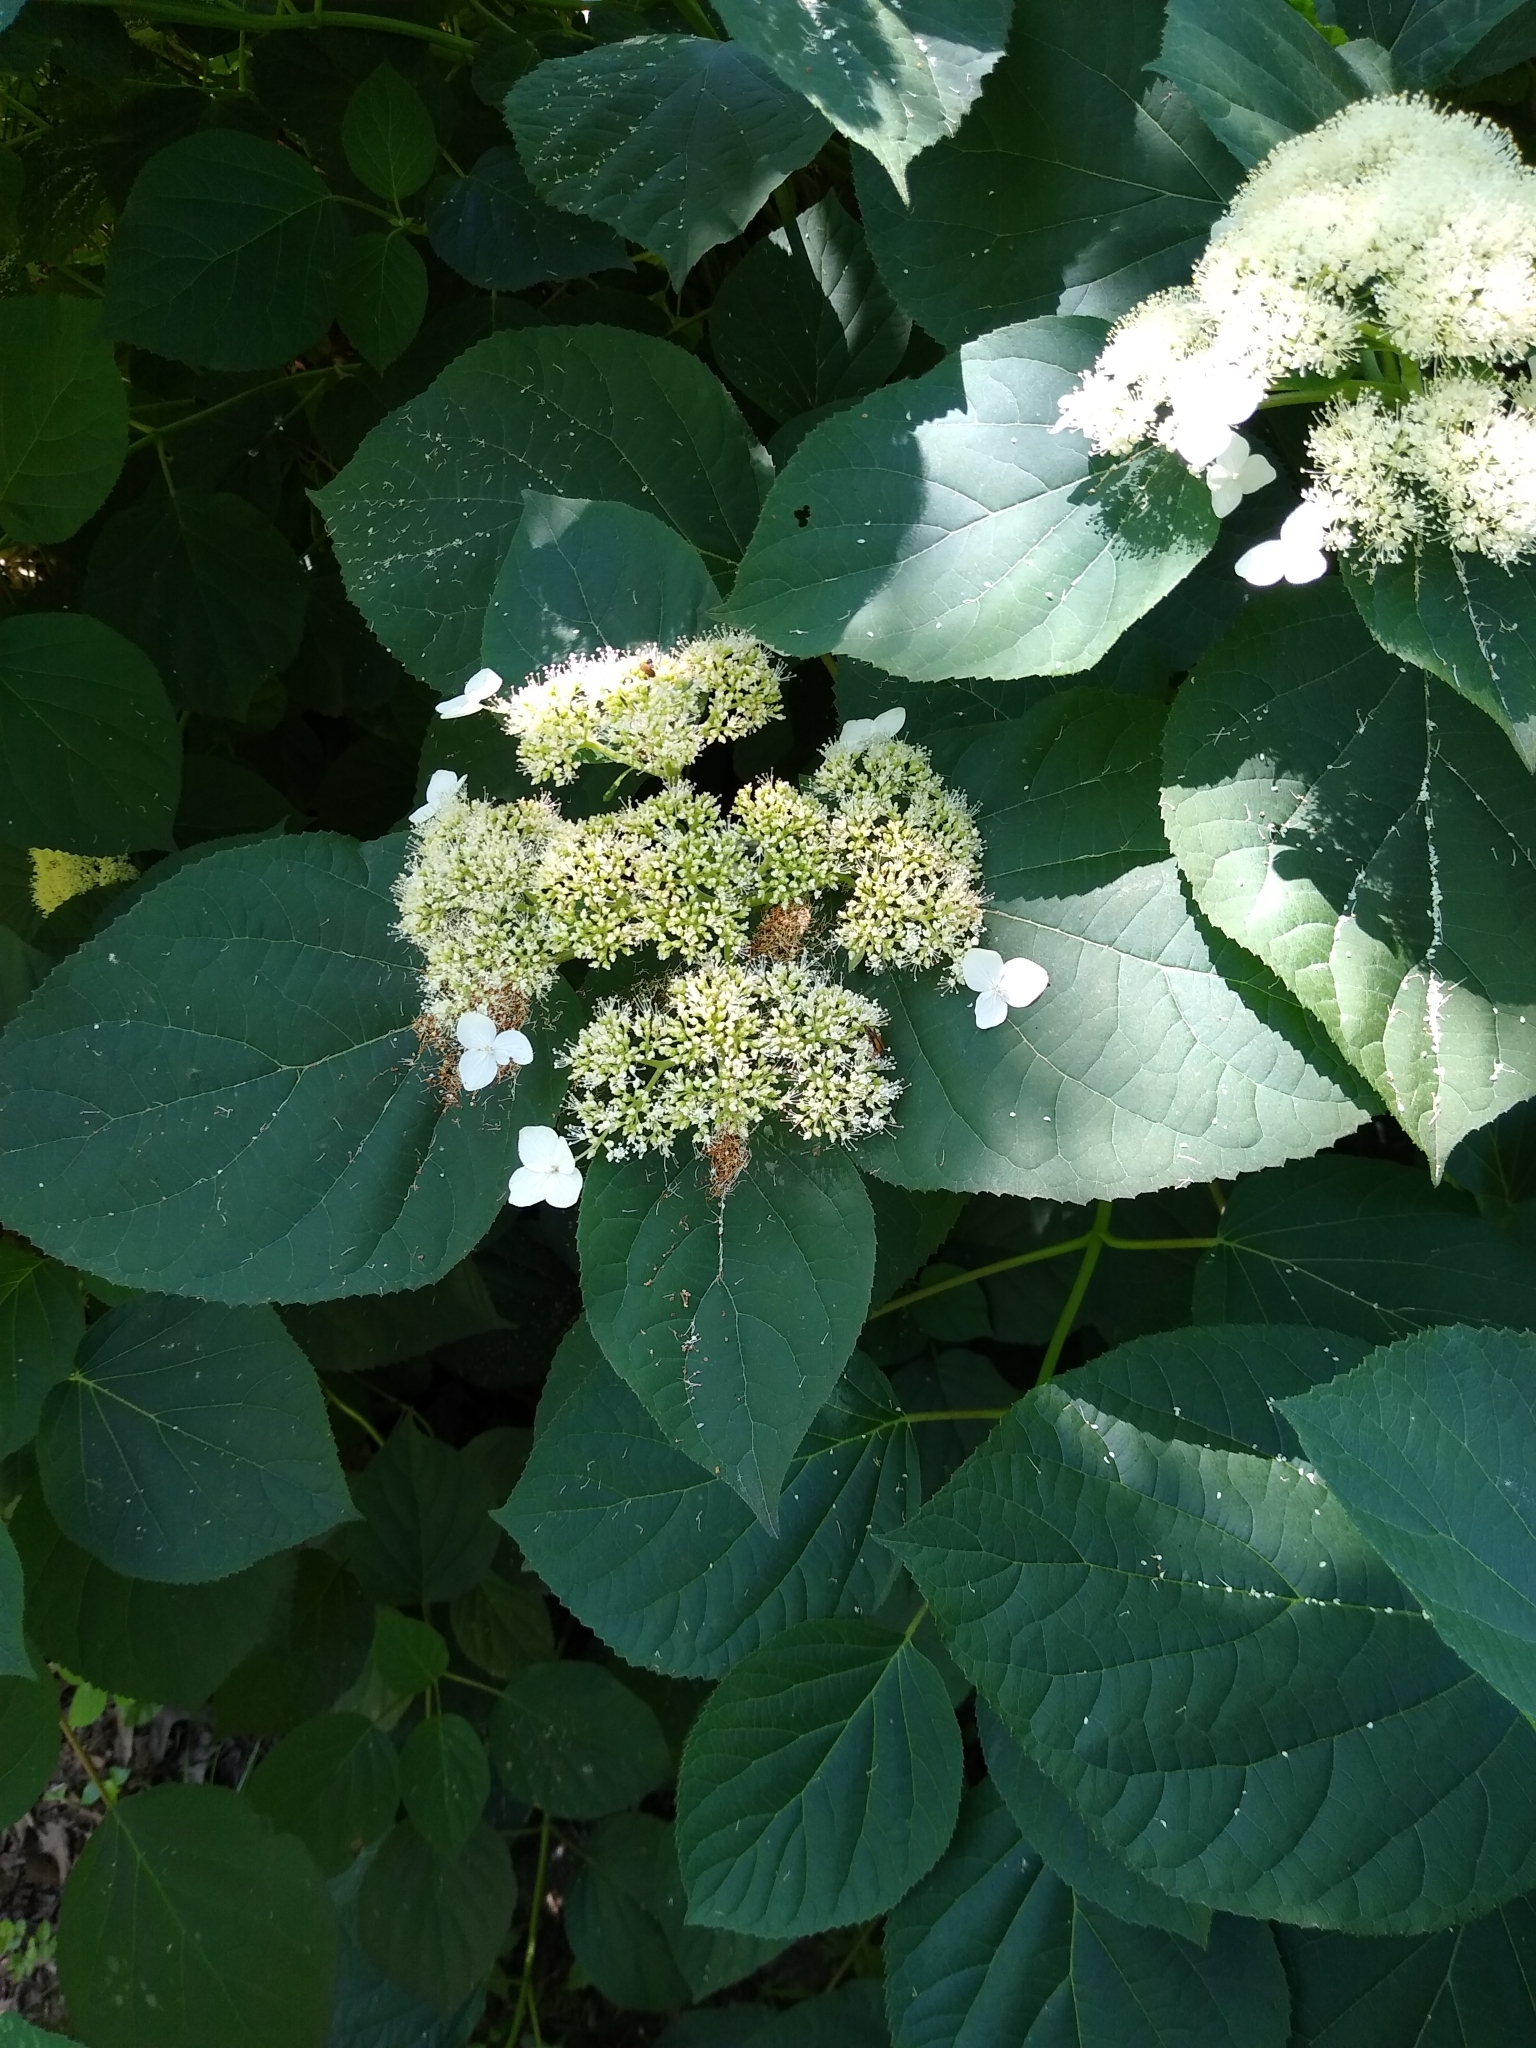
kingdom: Plantae
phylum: Tracheophyta
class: Magnoliopsida
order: Cornales
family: Hydrangeaceae
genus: Hydrangea
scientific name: Hydrangea arborescens
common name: Sevenbark
